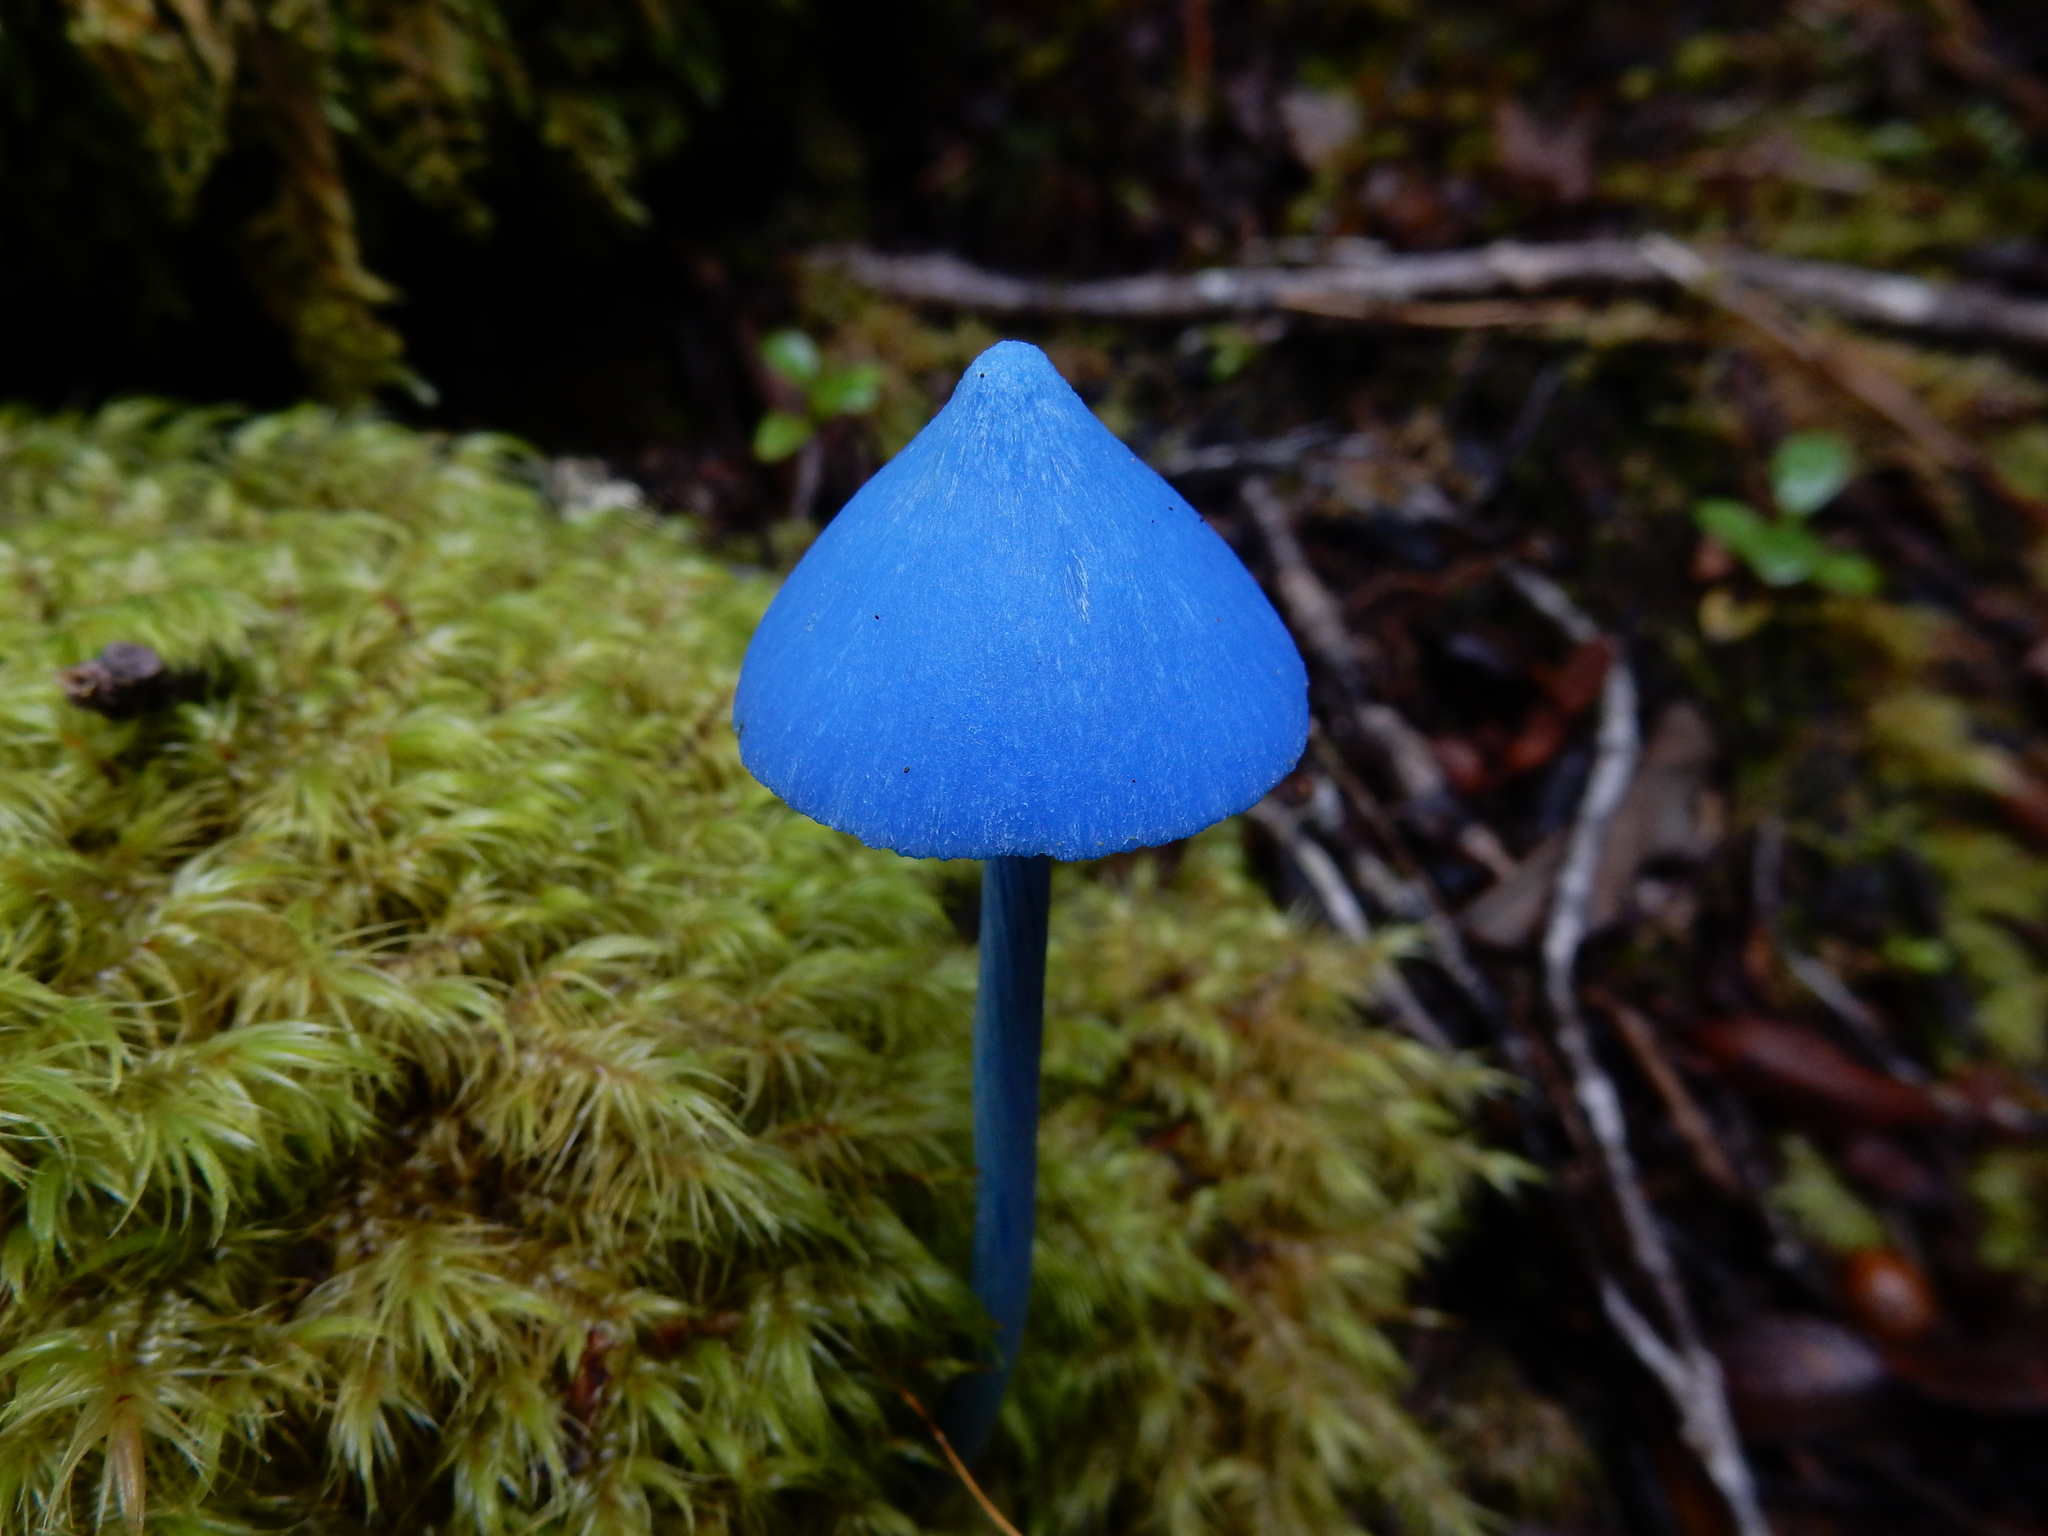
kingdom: Fungi
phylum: Basidiomycota
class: Agaricomycetes
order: Agaricales
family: Entolomataceae
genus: Entoloma
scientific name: Entoloma hochstetteri
